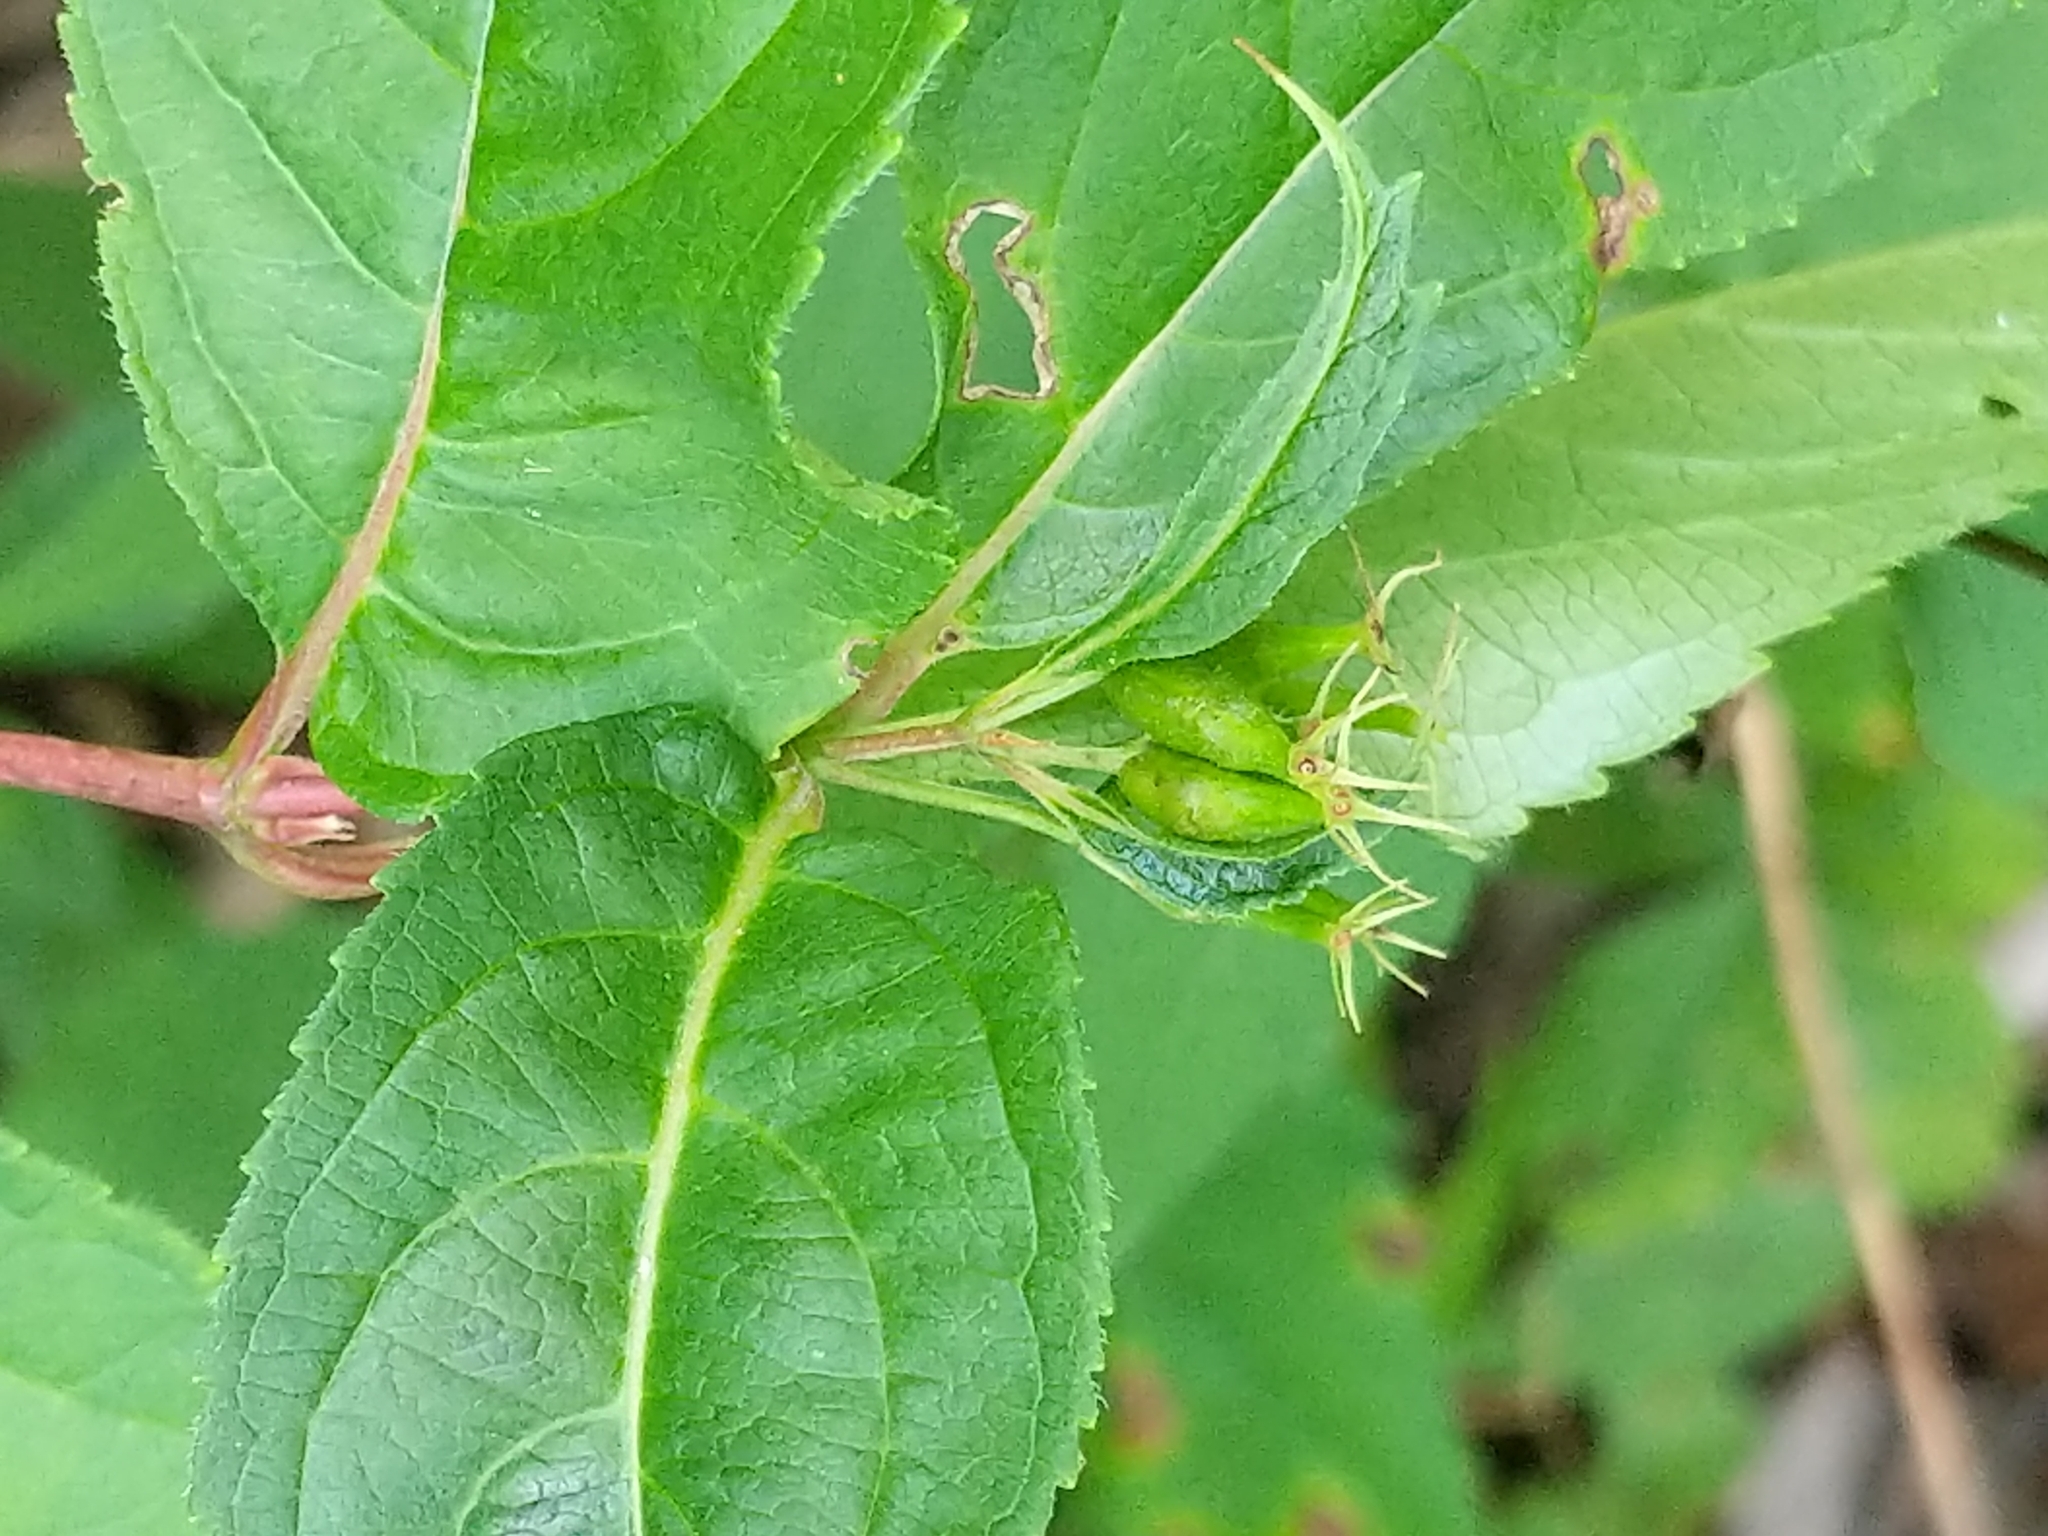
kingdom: Plantae
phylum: Tracheophyta
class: Magnoliopsida
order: Dipsacales
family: Caprifoliaceae
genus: Diervilla
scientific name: Diervilla lonicera
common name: Bush-honeysuckle
